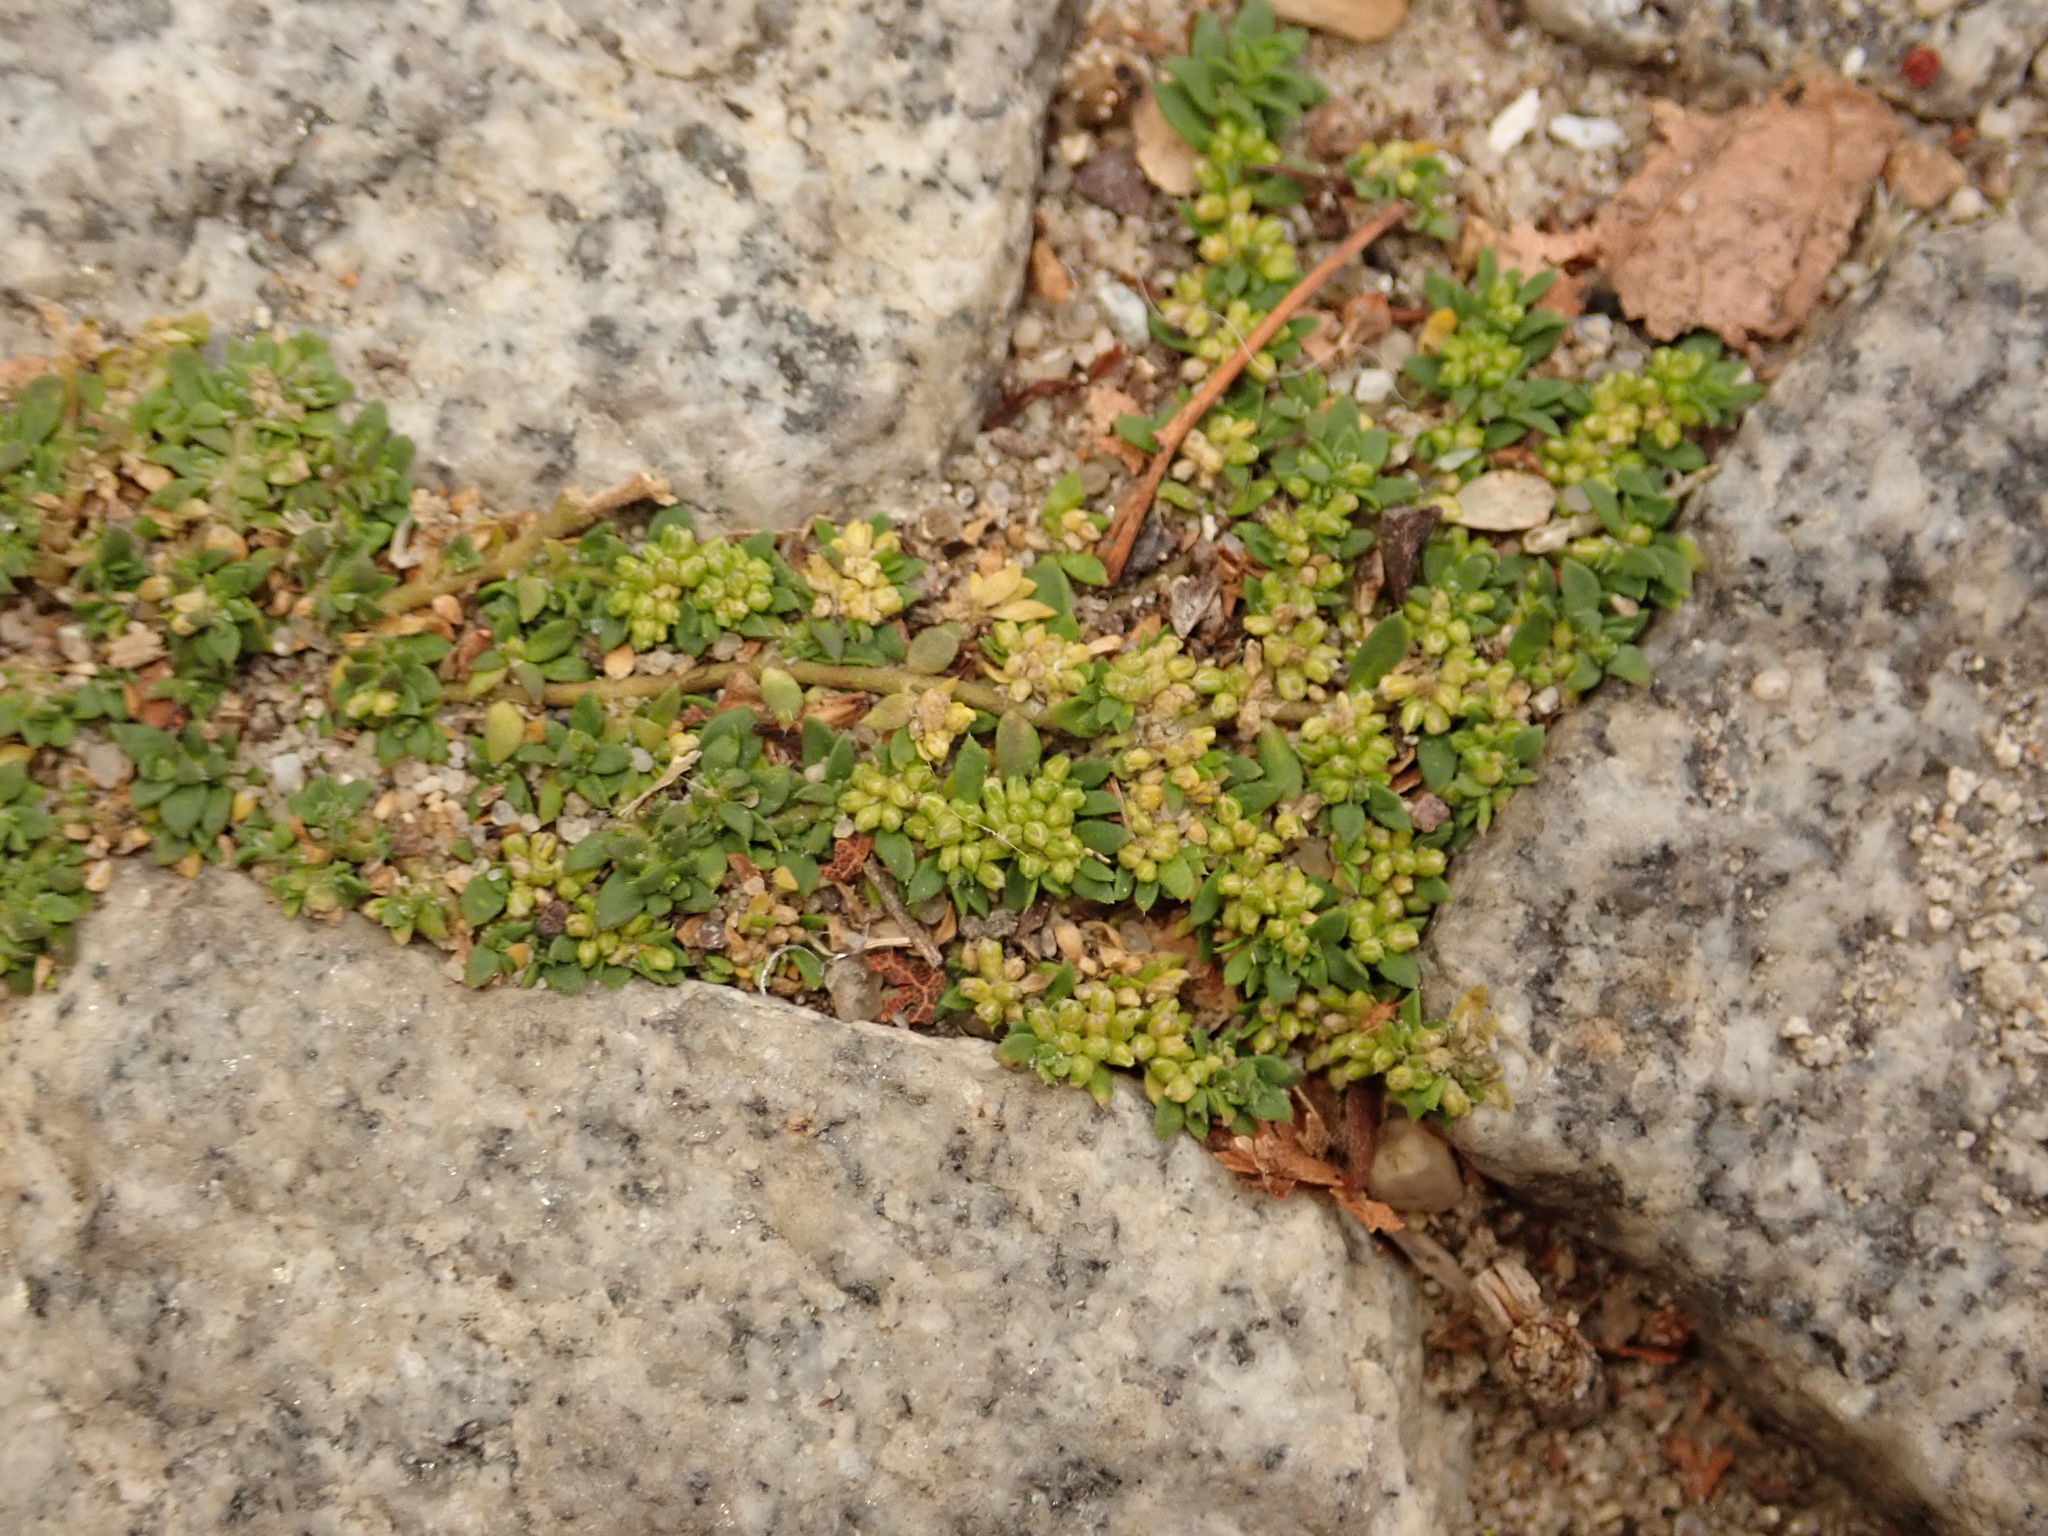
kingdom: Plantae
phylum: Tracheophyta
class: Magnoliopsida
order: Caryophyllales
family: Caryophyllaceae
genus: Herniaria
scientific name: Herniaria glabra
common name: Smooth rupturewort
